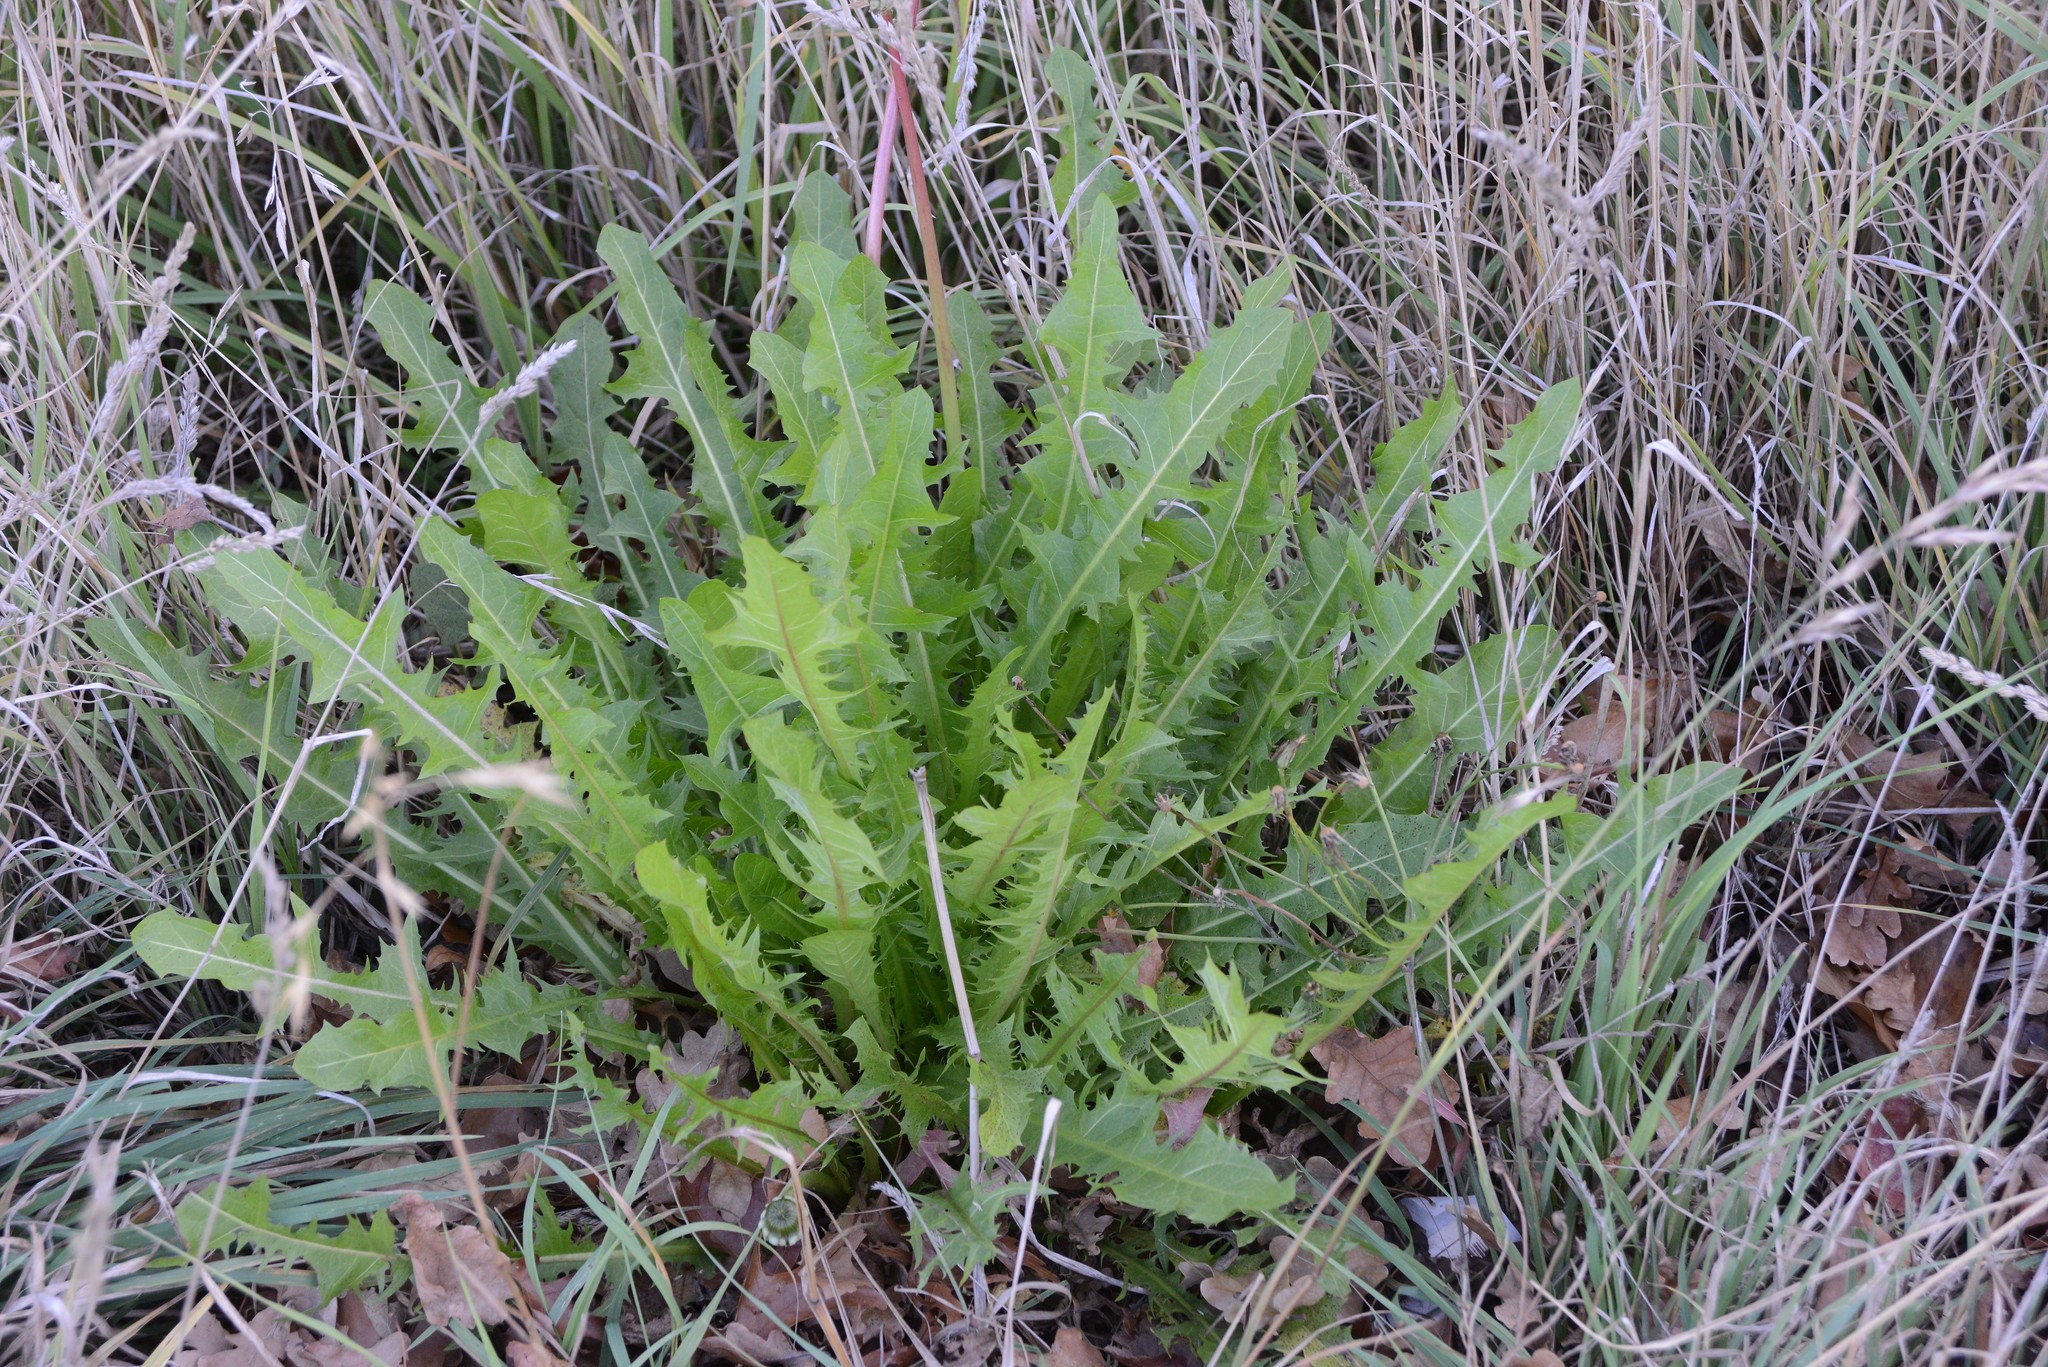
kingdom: Plantae
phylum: Tracheophyta
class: Magnoliopsida
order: Asterales
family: Asteraceae
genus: Taraxacum
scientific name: Taraxacum officinale
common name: Common dandelion
